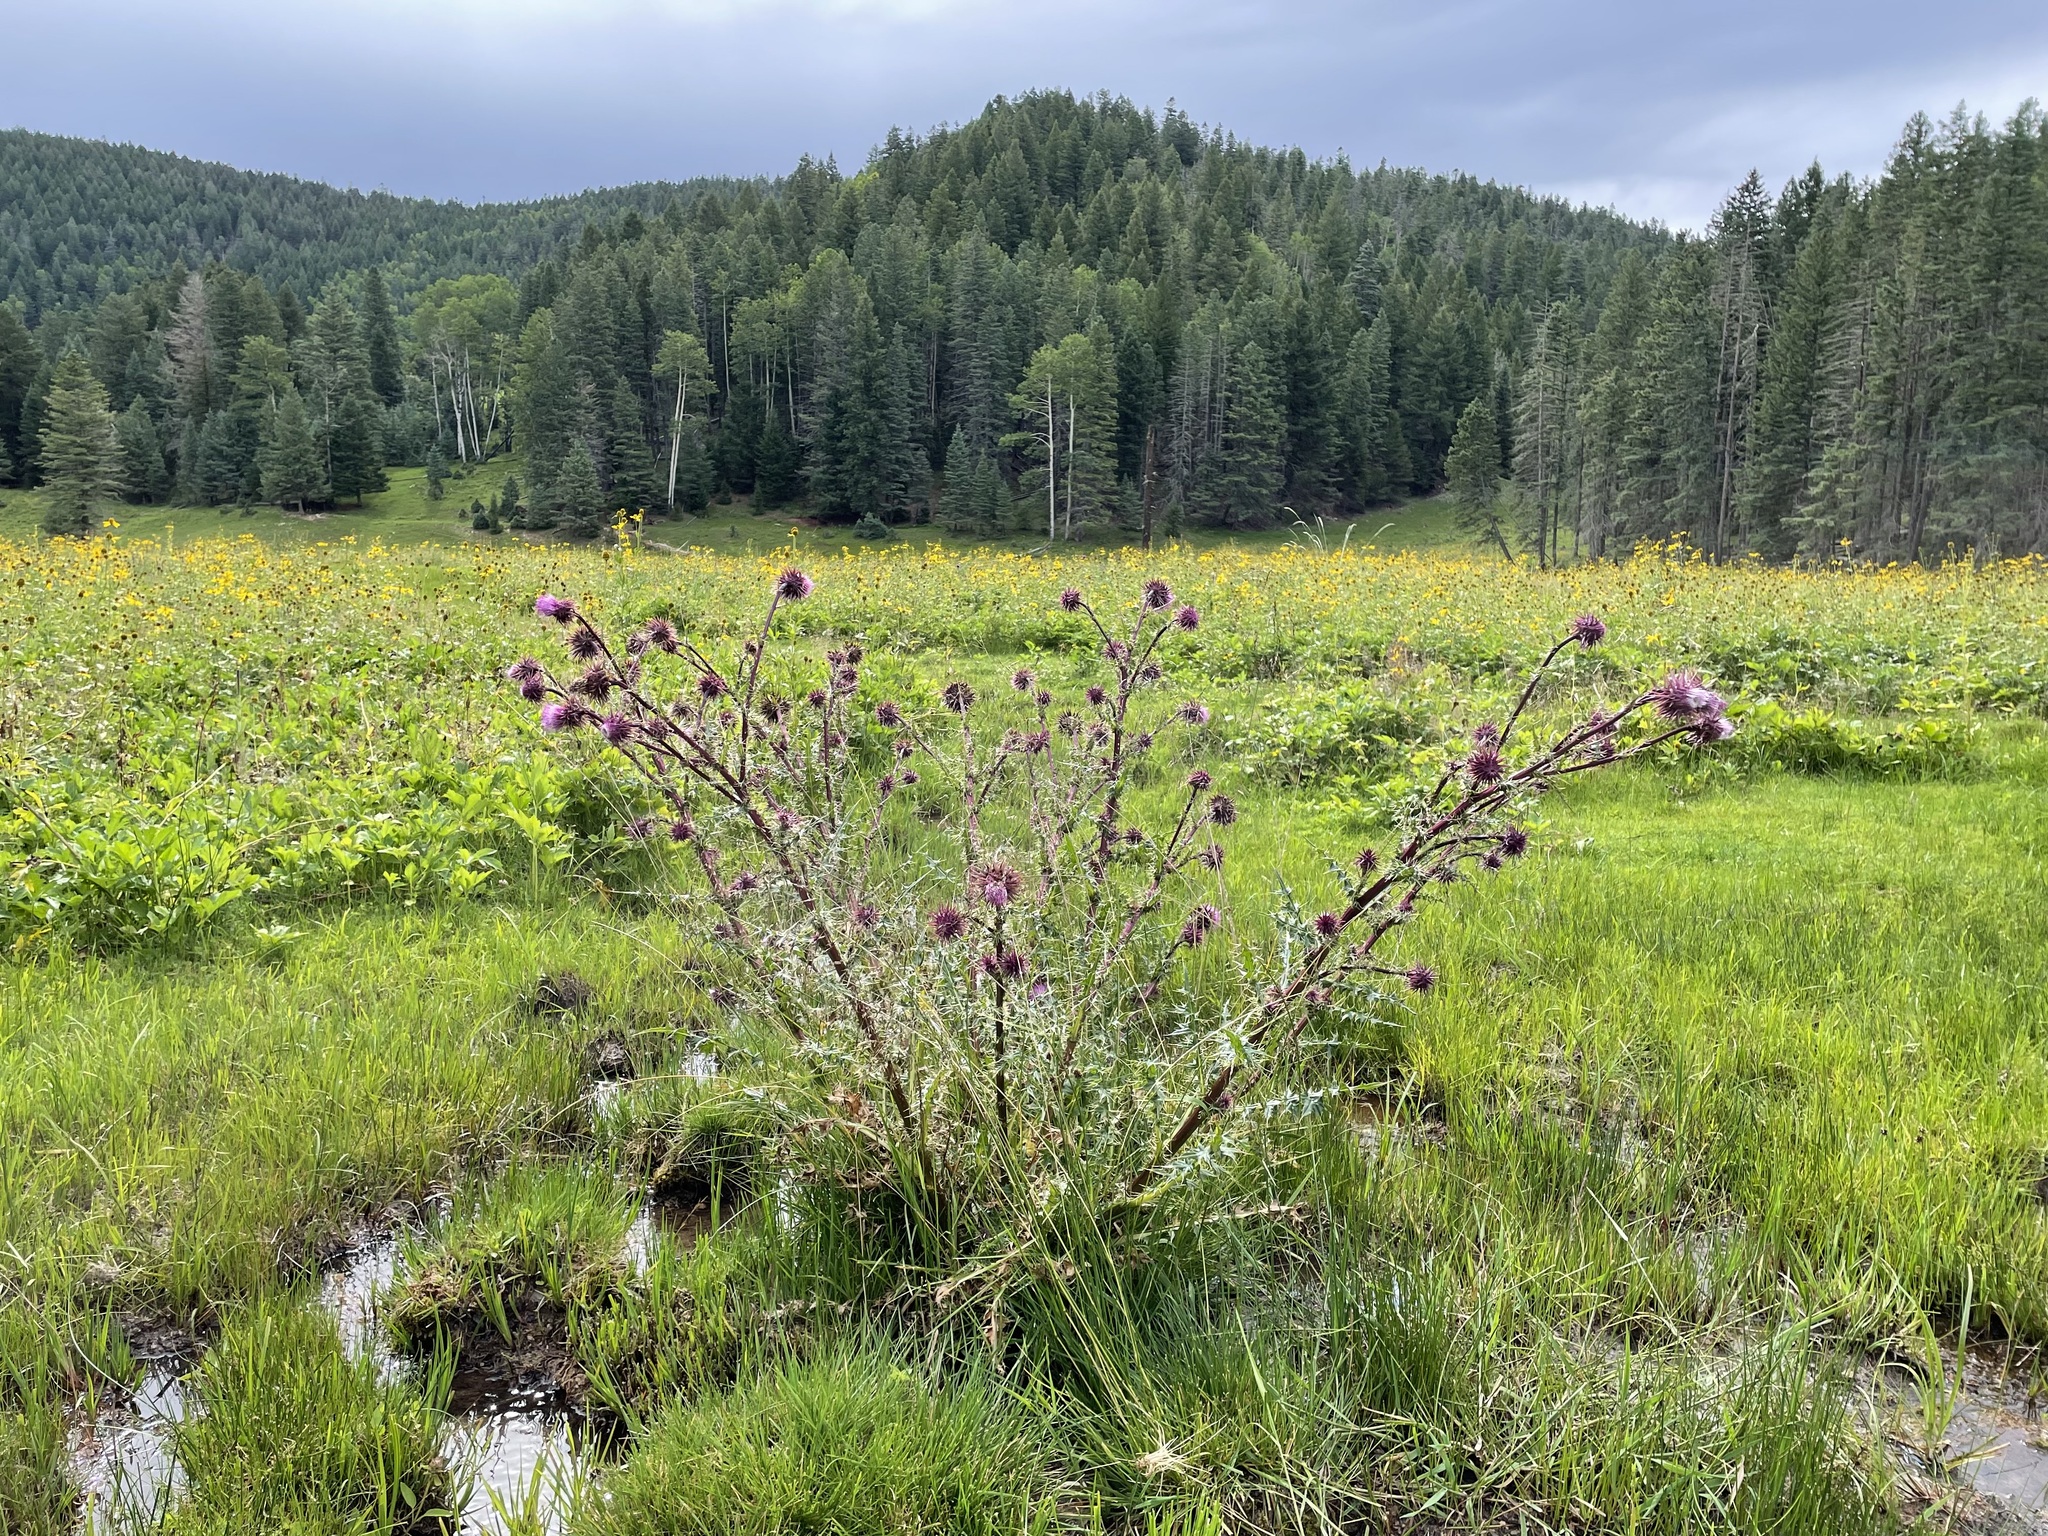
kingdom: Plantae
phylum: Tracheophyta
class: Magnoliopsida
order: Asterales
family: Asteraceae
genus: Cirsium
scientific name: Cirsium vinaceum
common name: Sacramento mountain thistle
